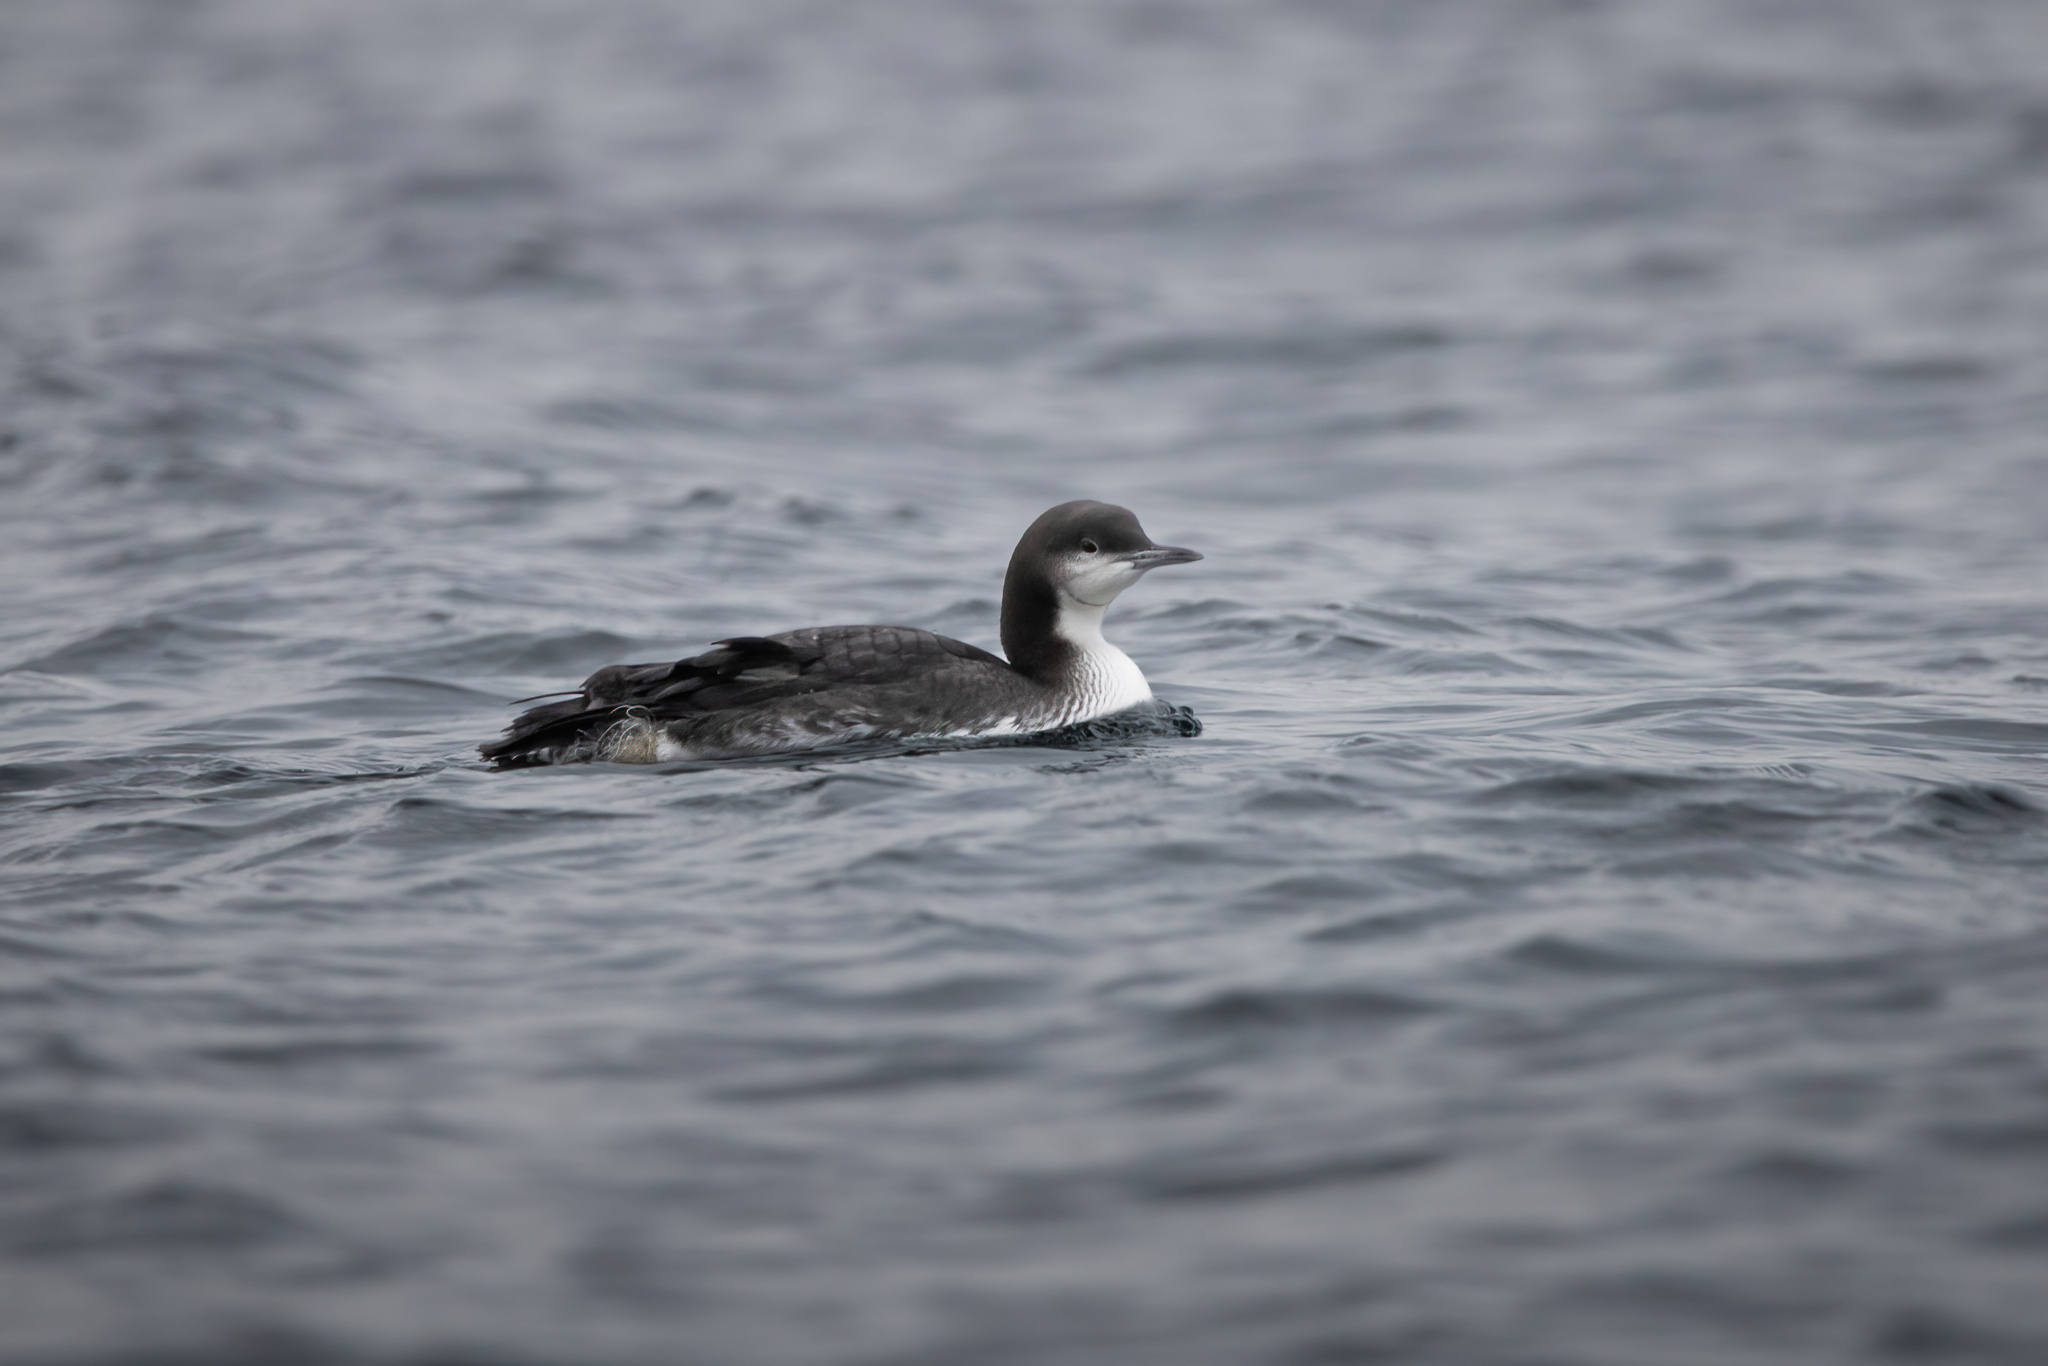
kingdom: Animalia
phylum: Chordata
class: Aves
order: Gaviiformes
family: Gaviidae
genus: Gavia
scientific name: Gavia pacifica
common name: Pacific loon
